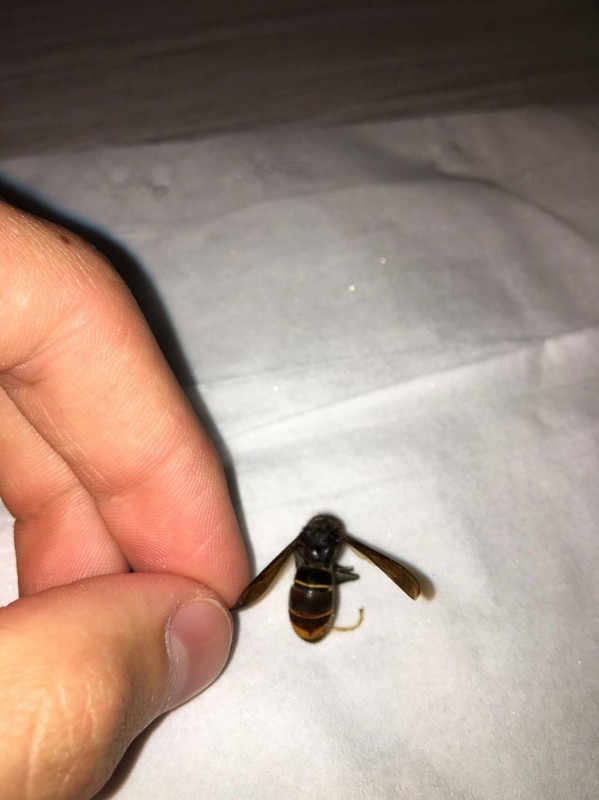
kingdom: Animalia
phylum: Arthropoda
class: Insecta
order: Hymenoptera
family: Vespidae
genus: Vespa
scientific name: Vespa velutina
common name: Asian hornet
